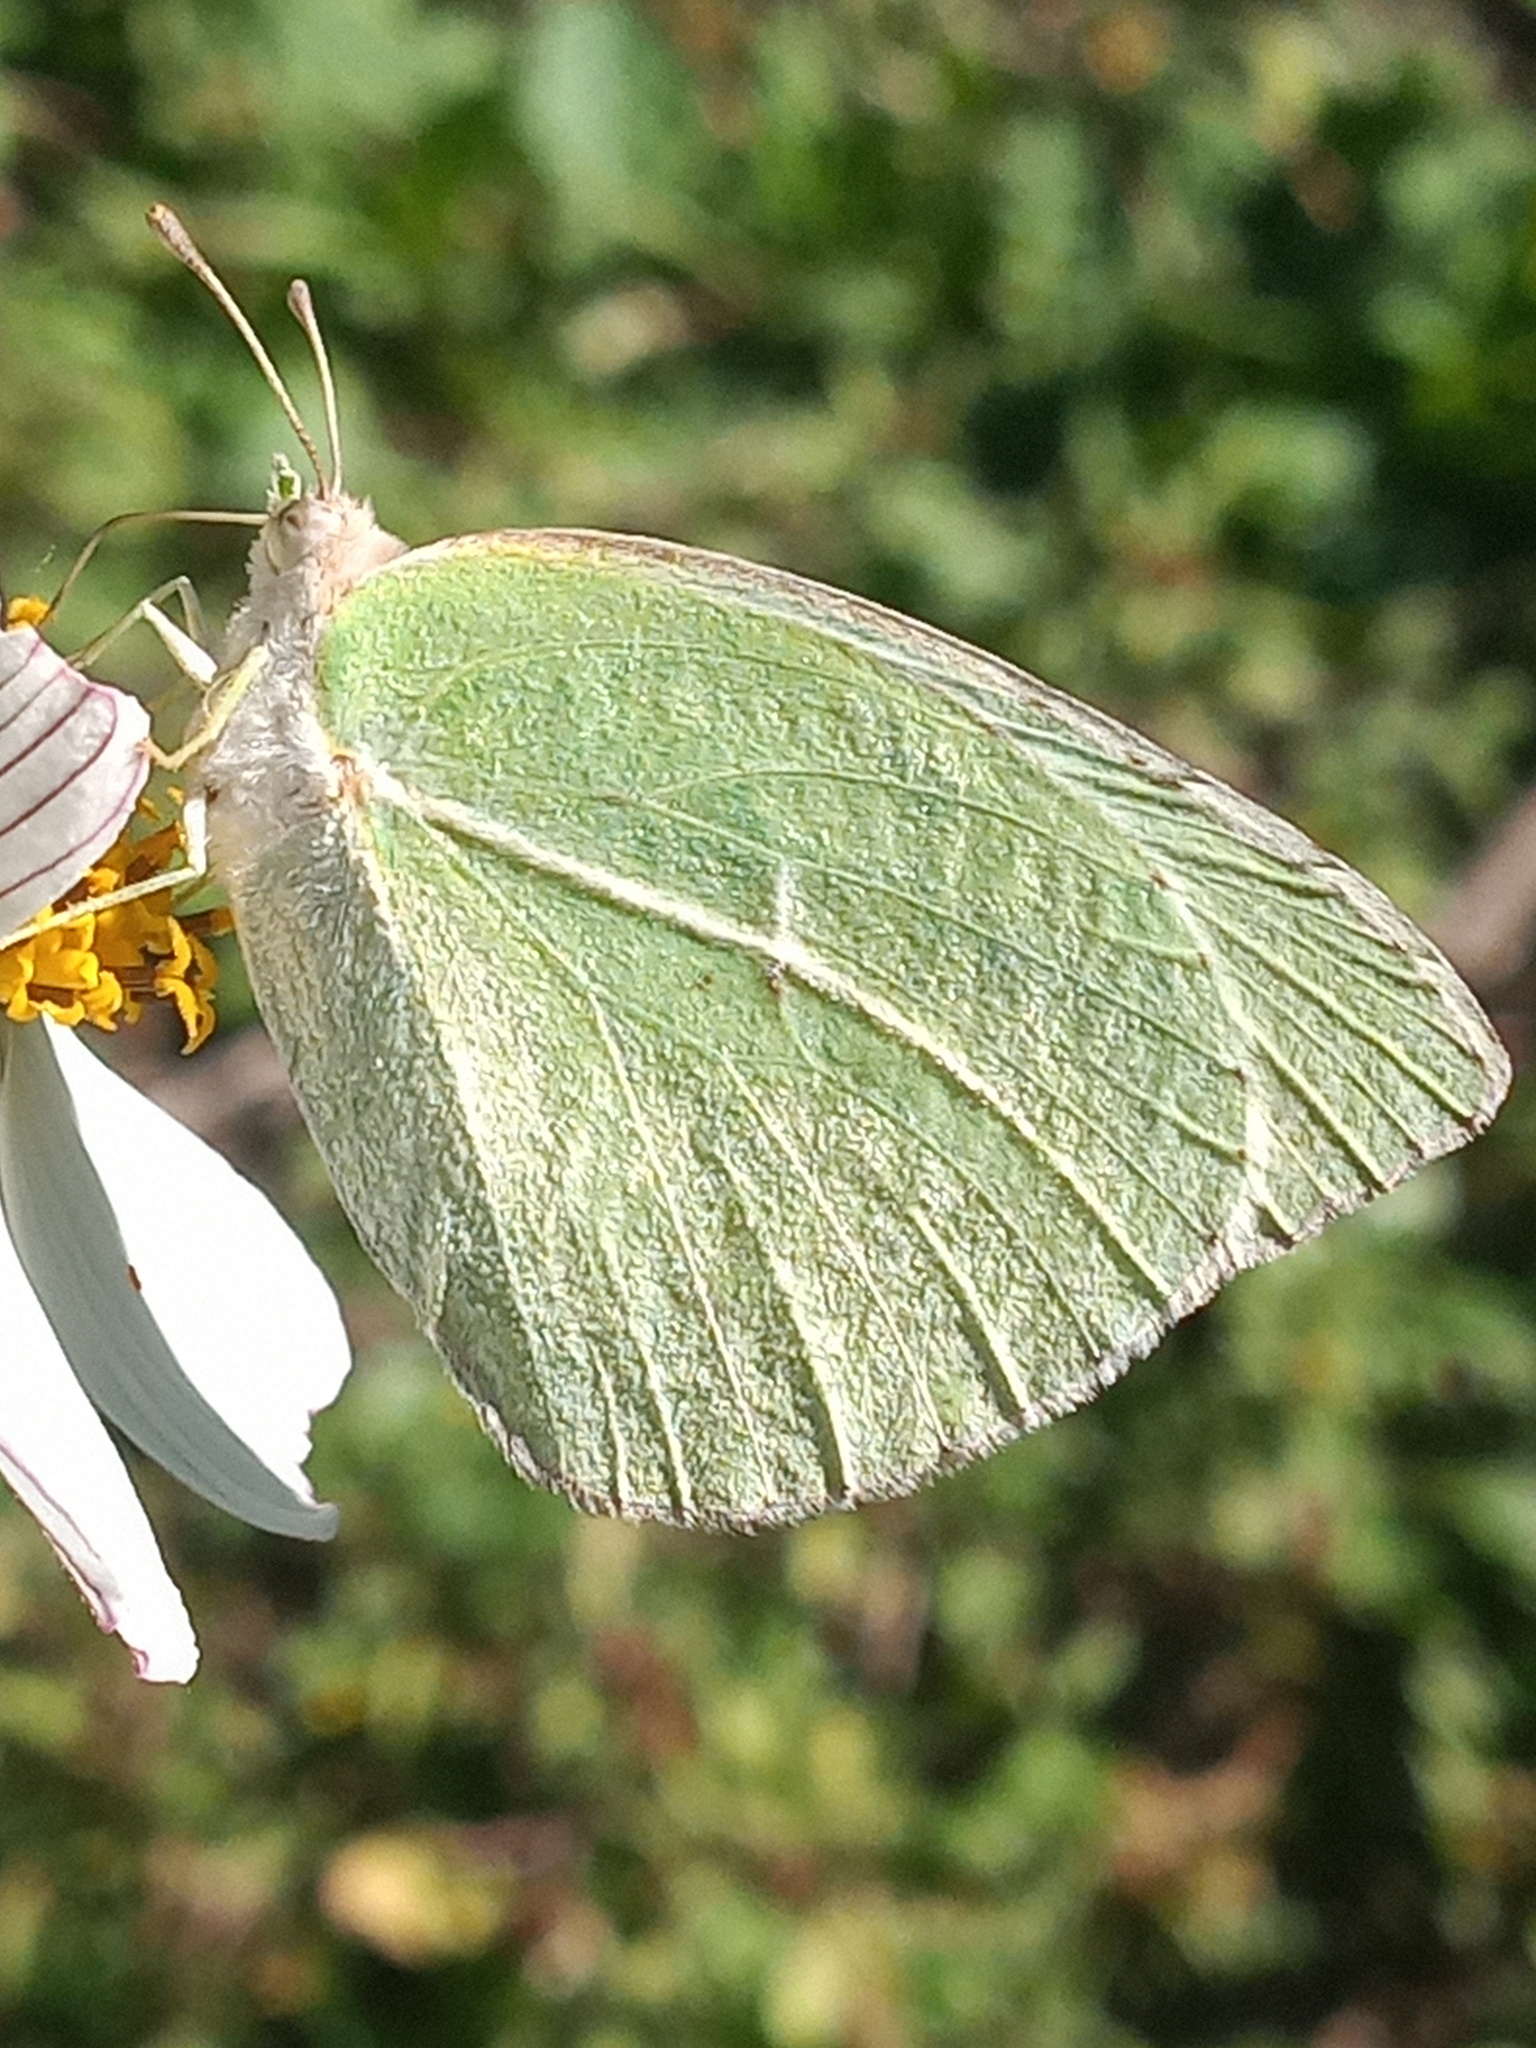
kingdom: Animalia
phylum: Arthropoda
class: Insecta
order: Lepidoptera
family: Pieridae
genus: Kricogonia
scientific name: Kricogonia lyside
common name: Guayacan sulphur,
